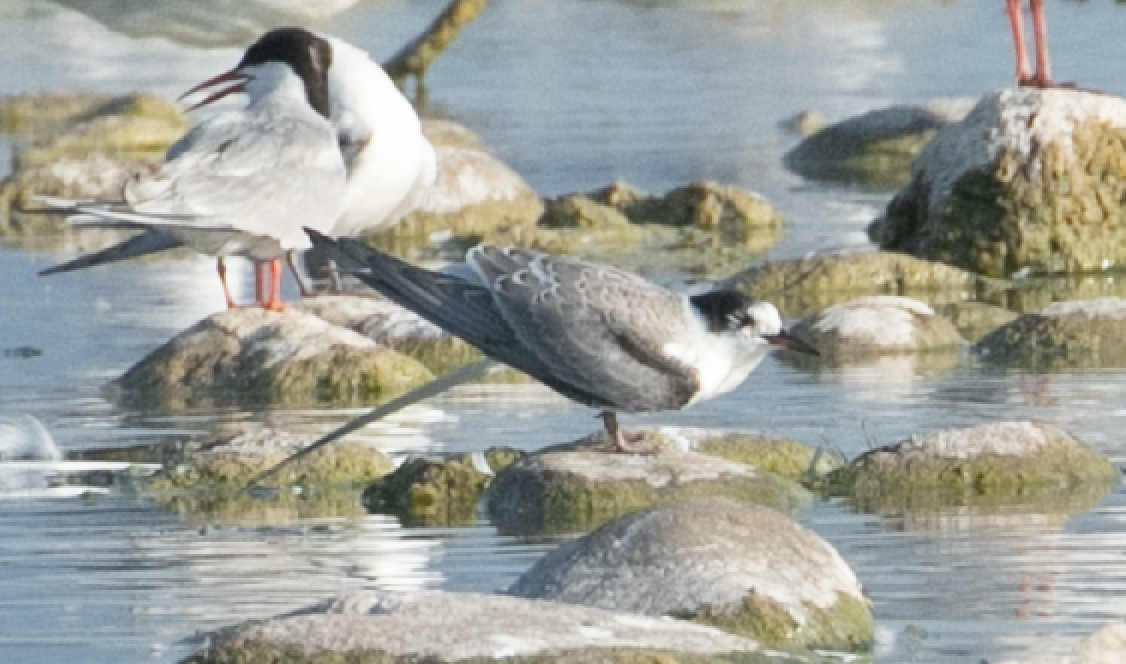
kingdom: Animalia
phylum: Chordata
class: Aves
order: Charadriiformes
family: Laridae
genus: Sterna
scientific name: Sterna hirundo
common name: Common tern
